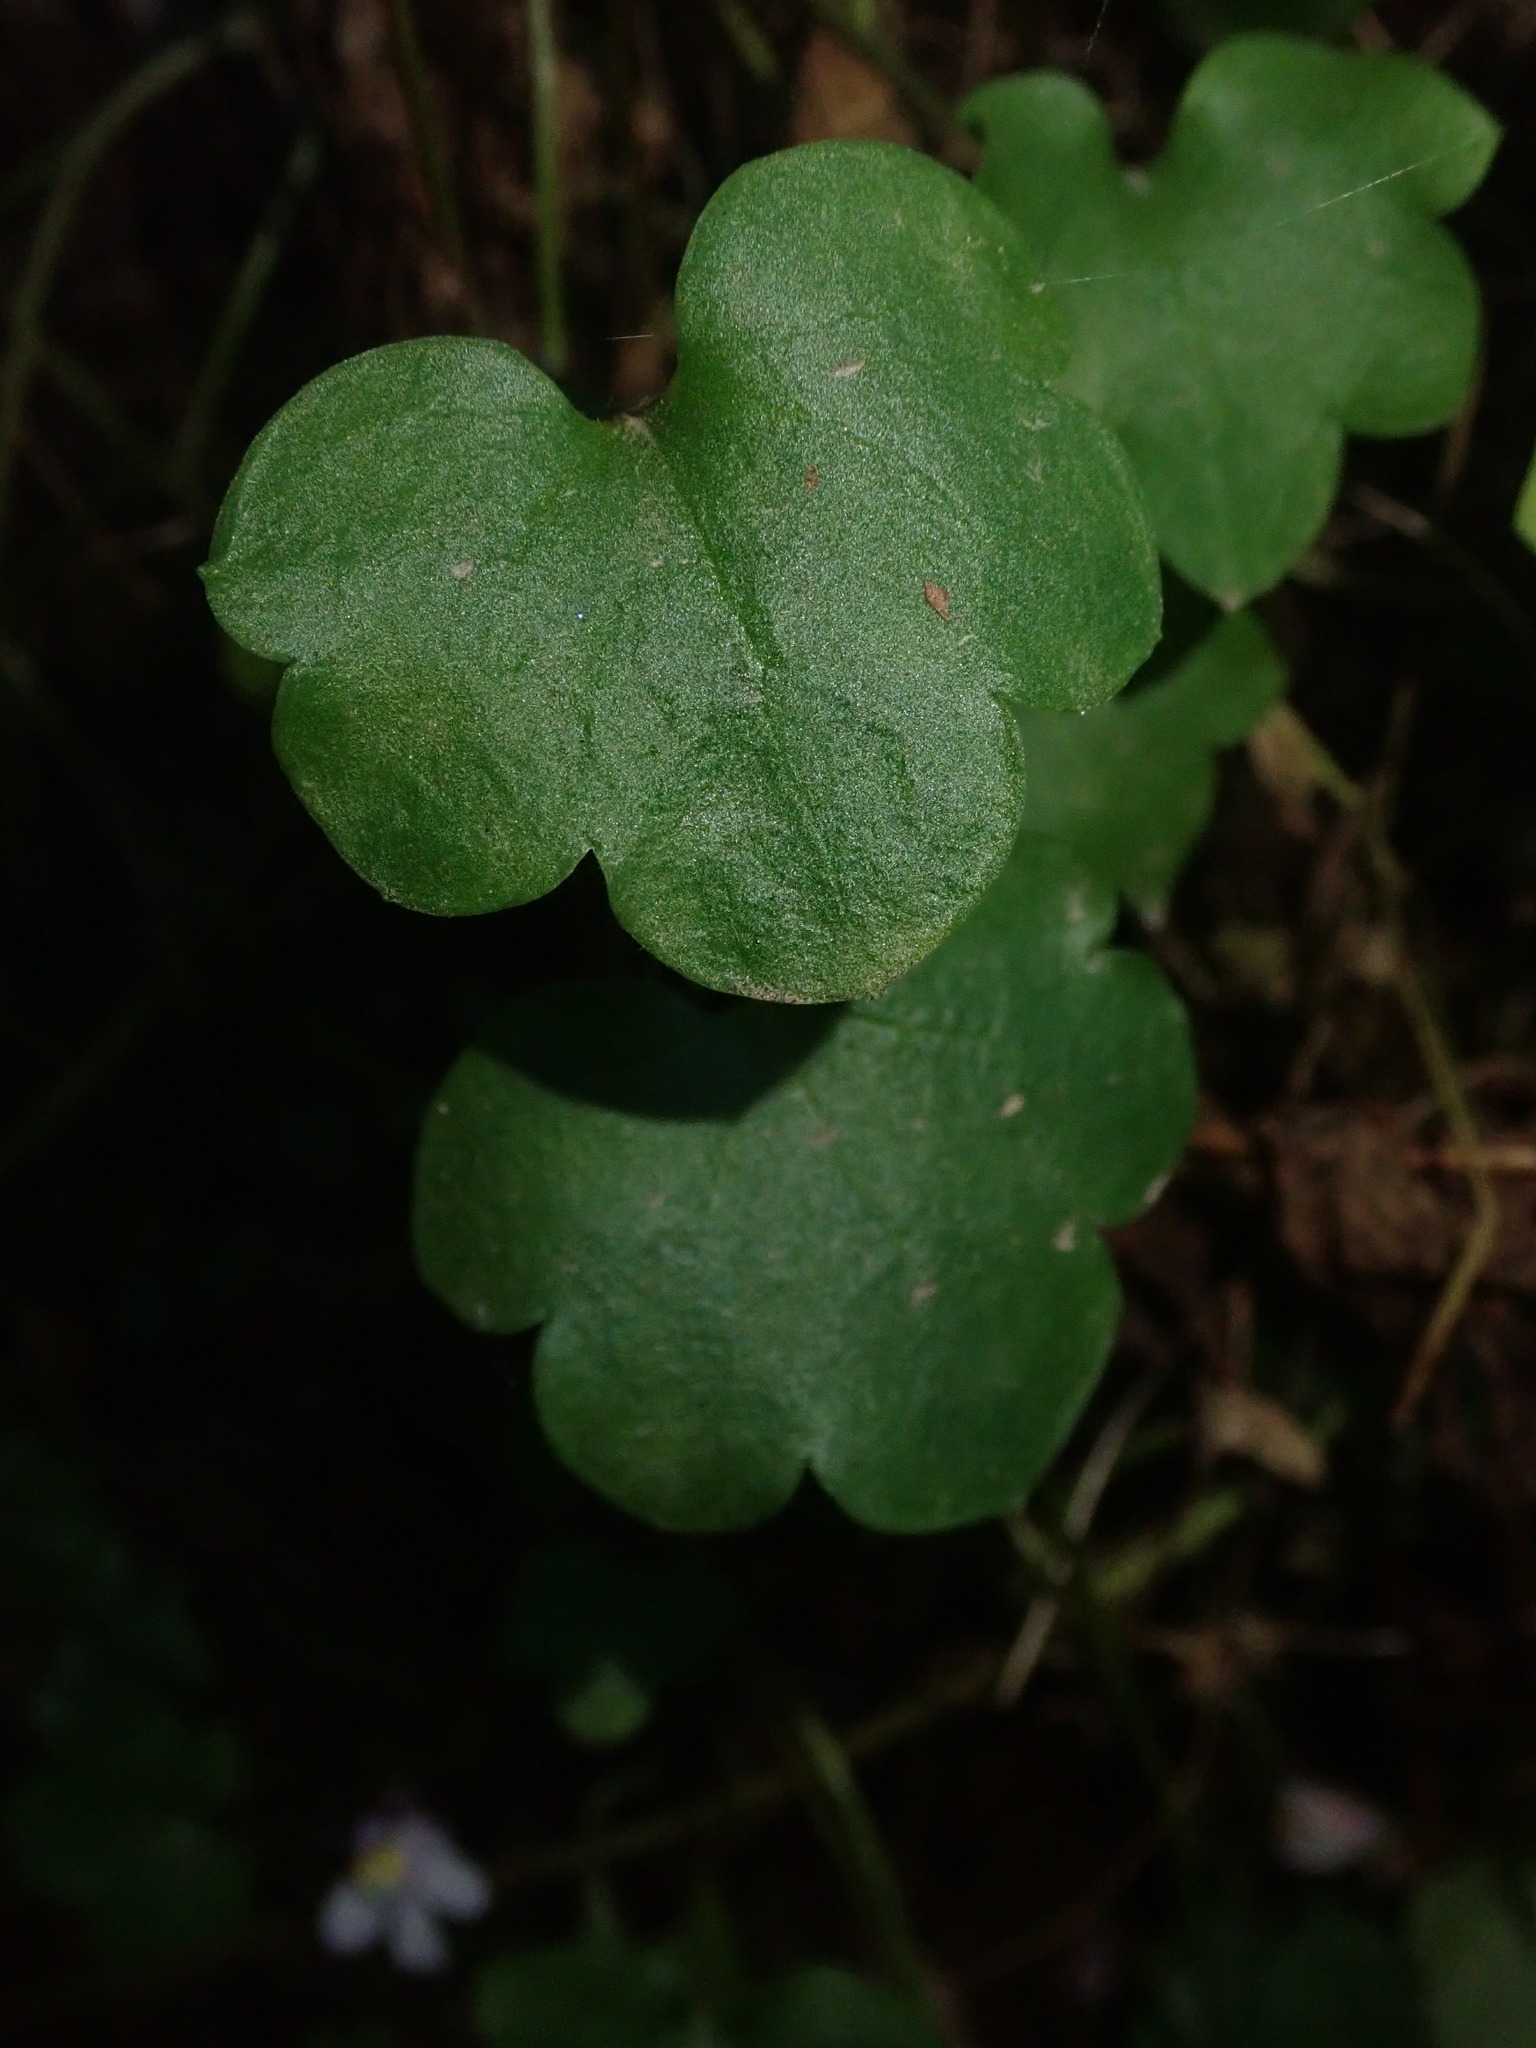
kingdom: Plantae
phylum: Tracheophyta
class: Magnoliopsida
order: Lamiales
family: Plantaginaceae
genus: Cymbalaria
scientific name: Cymbalaria muralis
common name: Ivy-leaved toadflax
